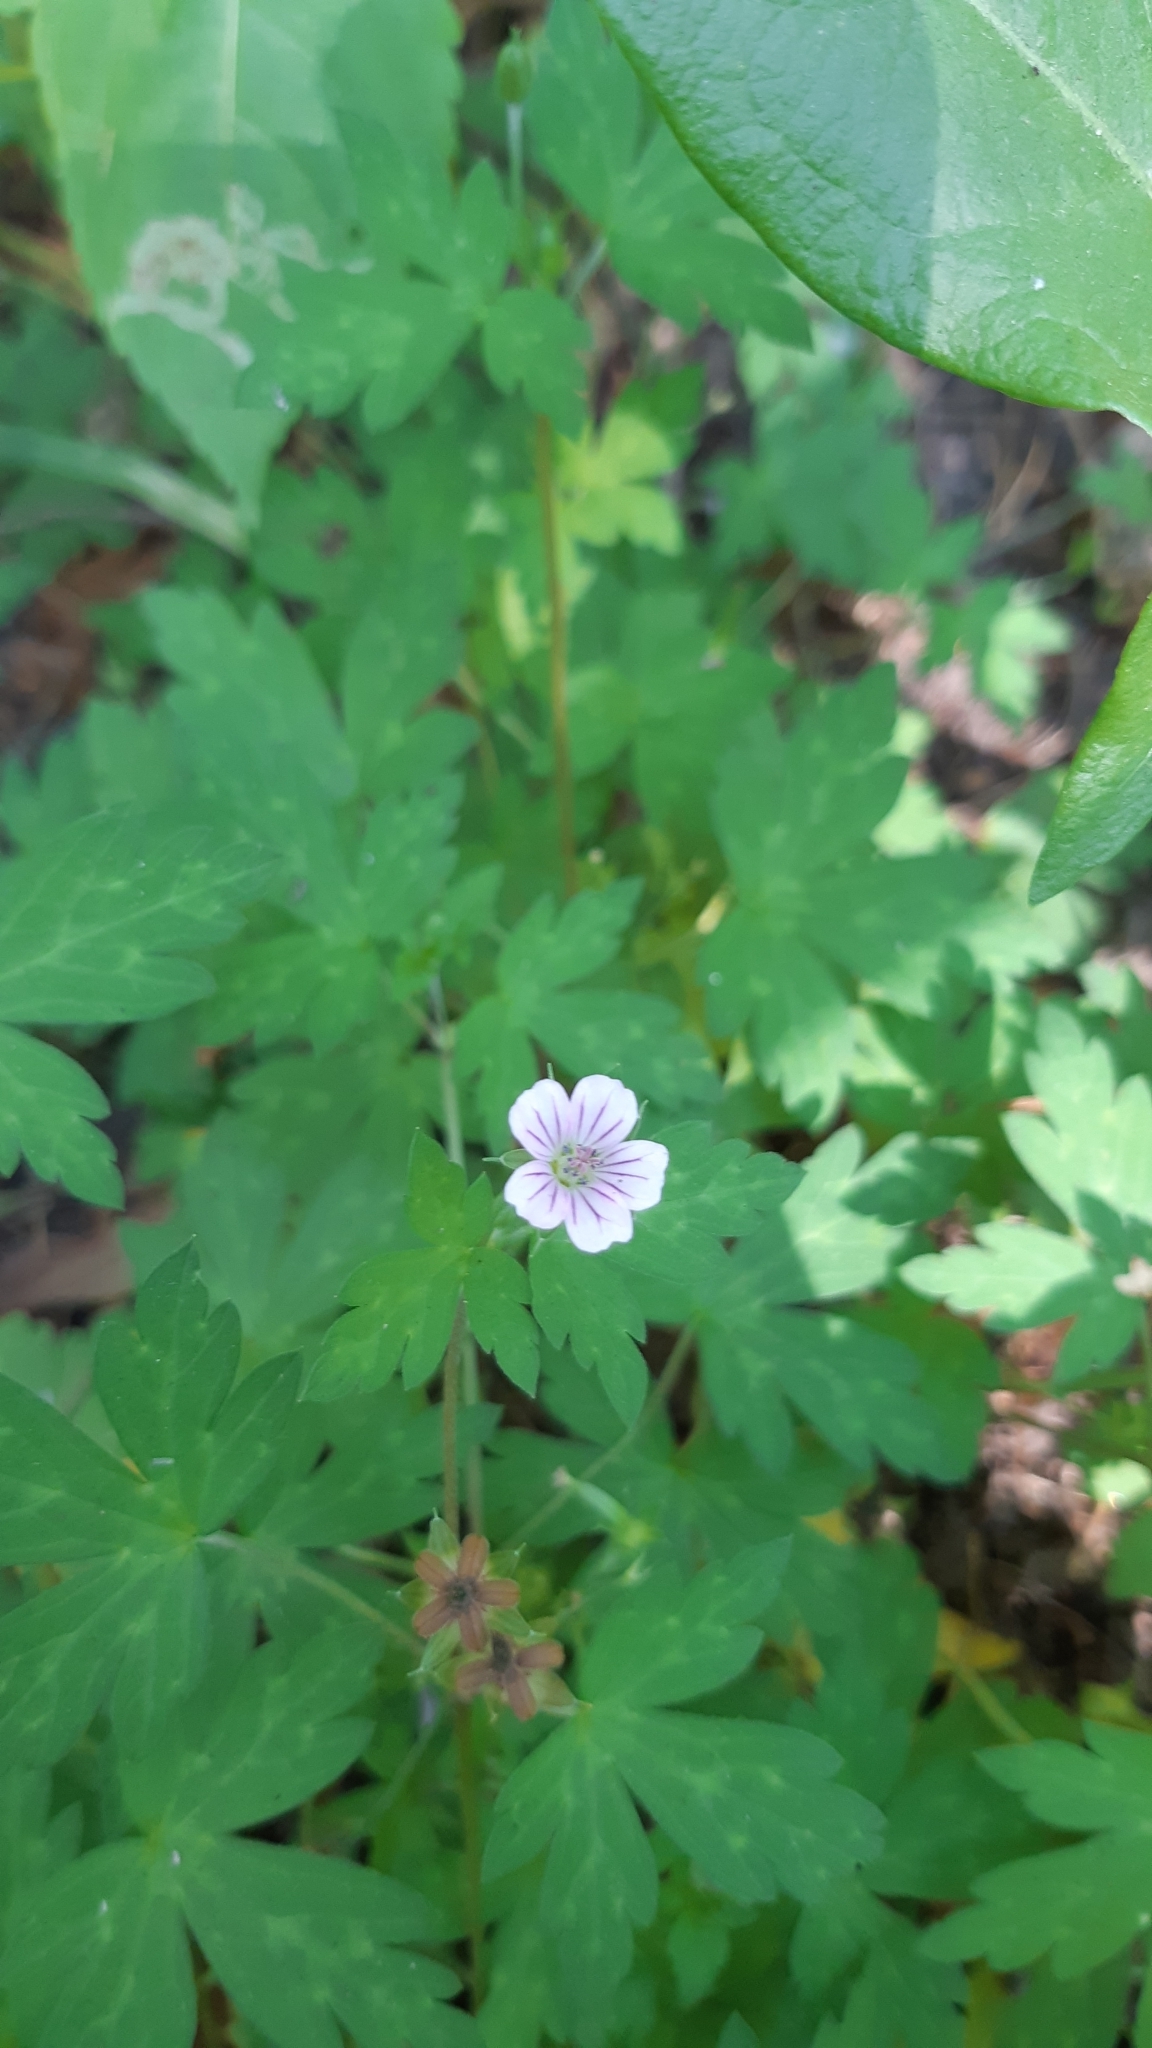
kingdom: Plantae
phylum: Tracheophyta
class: Magnoliopsida
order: Geraniales
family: Geraniaceae
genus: Geranium
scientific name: Geranium sibiricum
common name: Siberian crane's-bill
